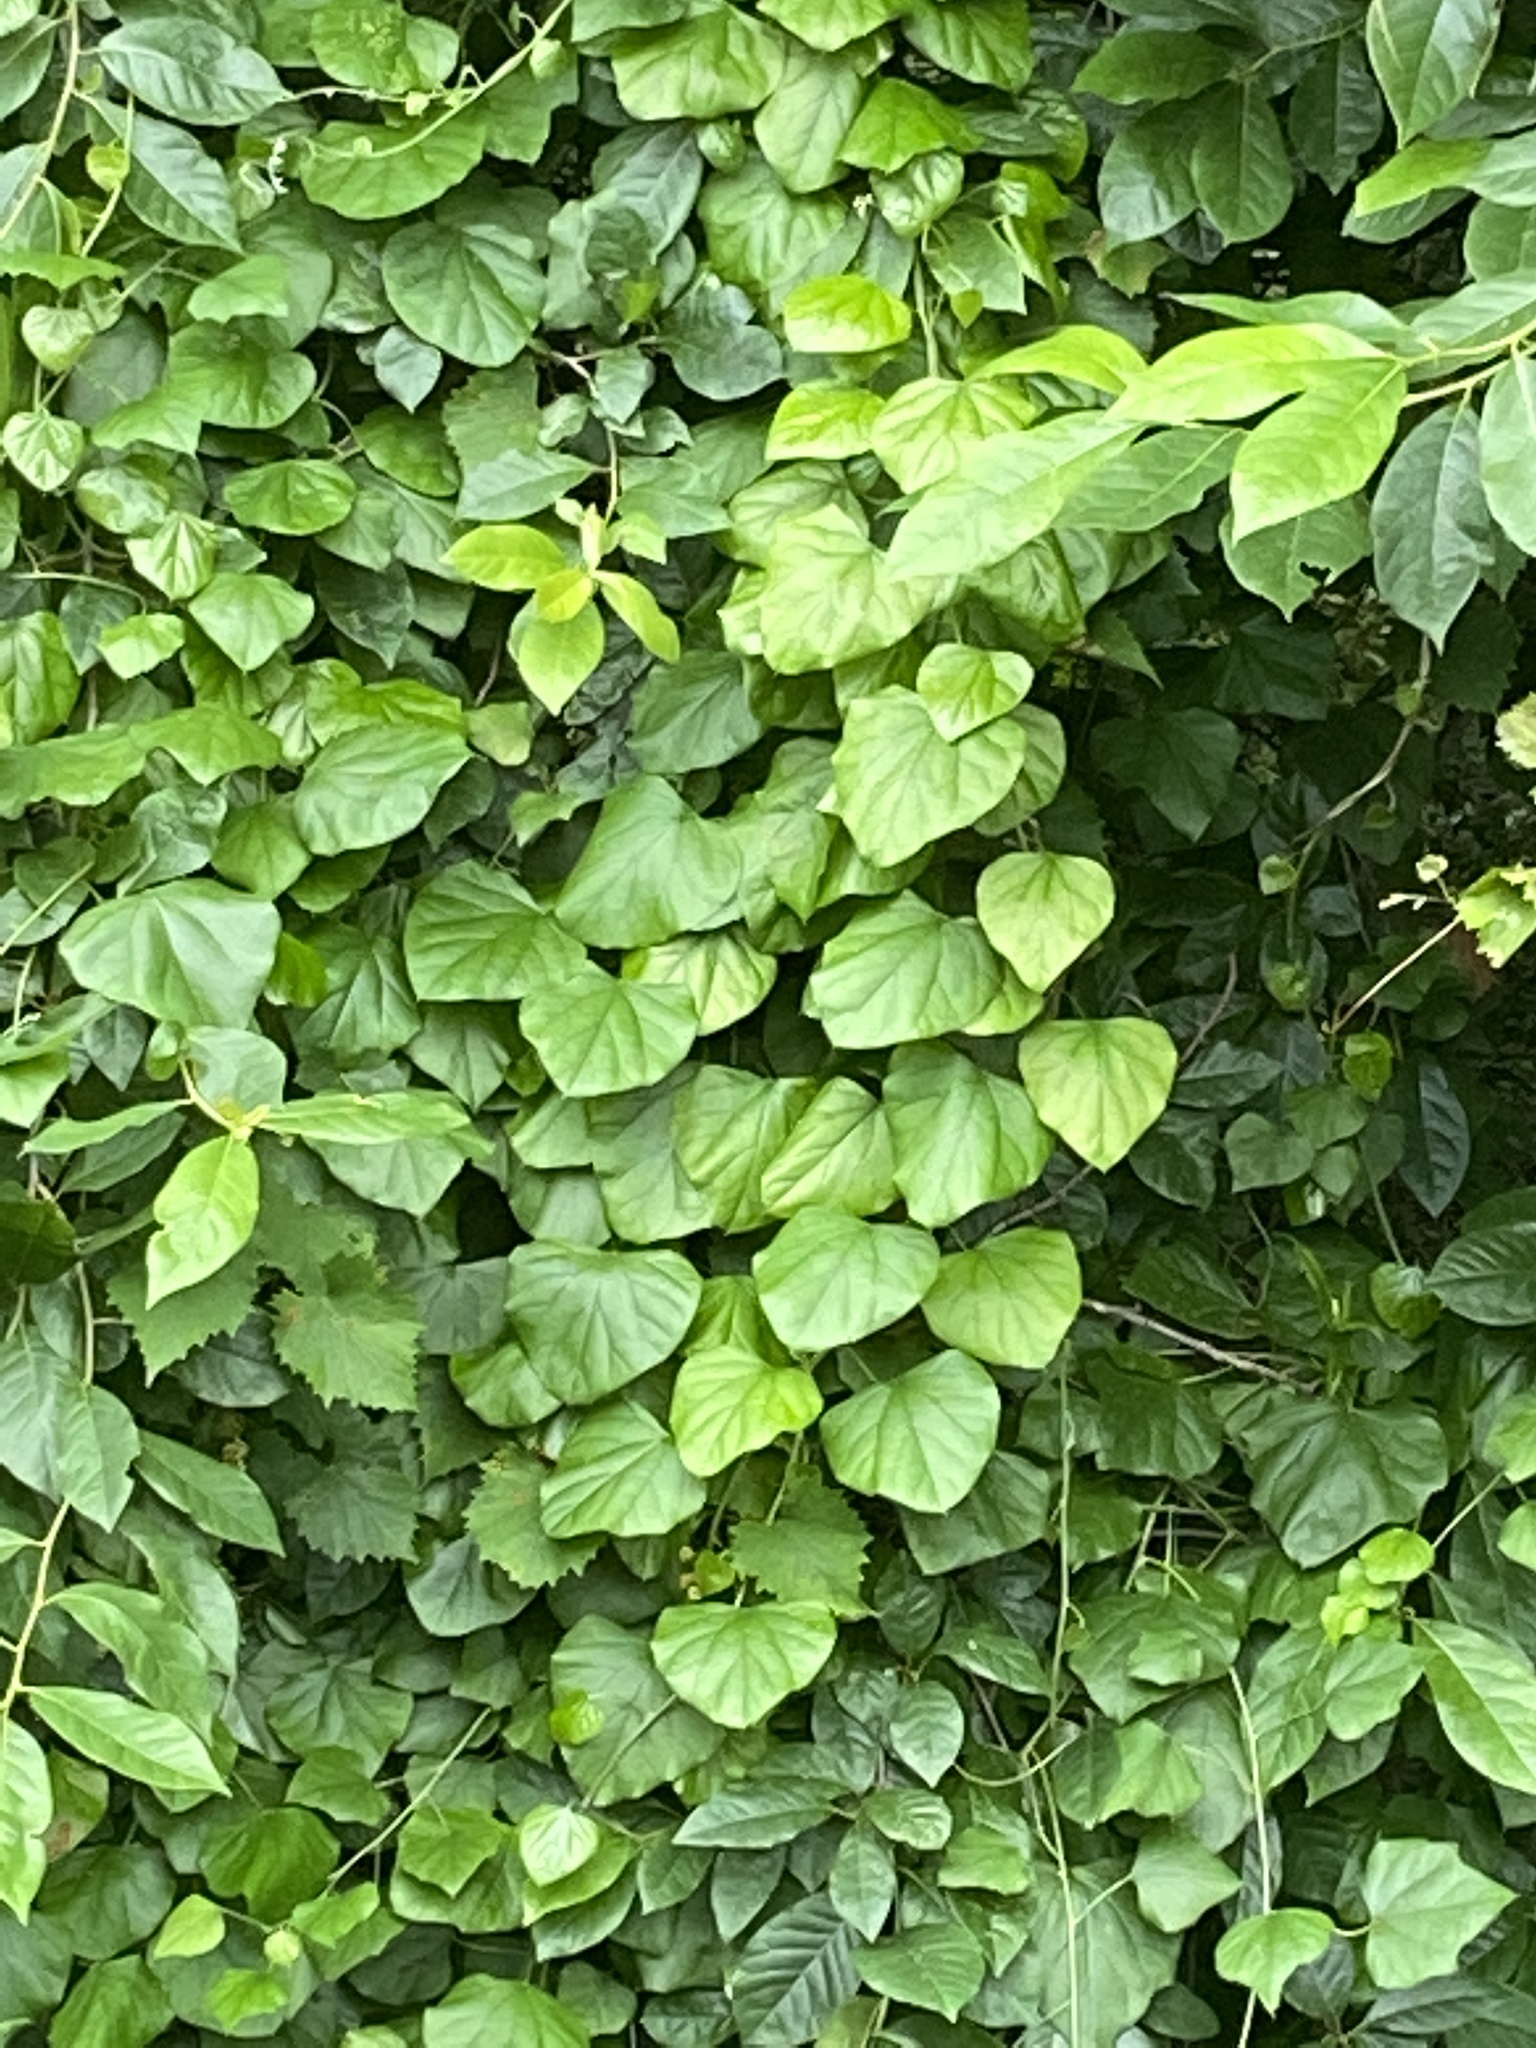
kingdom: Plantae
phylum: Tracheophyta
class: Magnoliopsida
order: Piperales
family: Aristolochiaceae
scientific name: Aristolochiaceae
